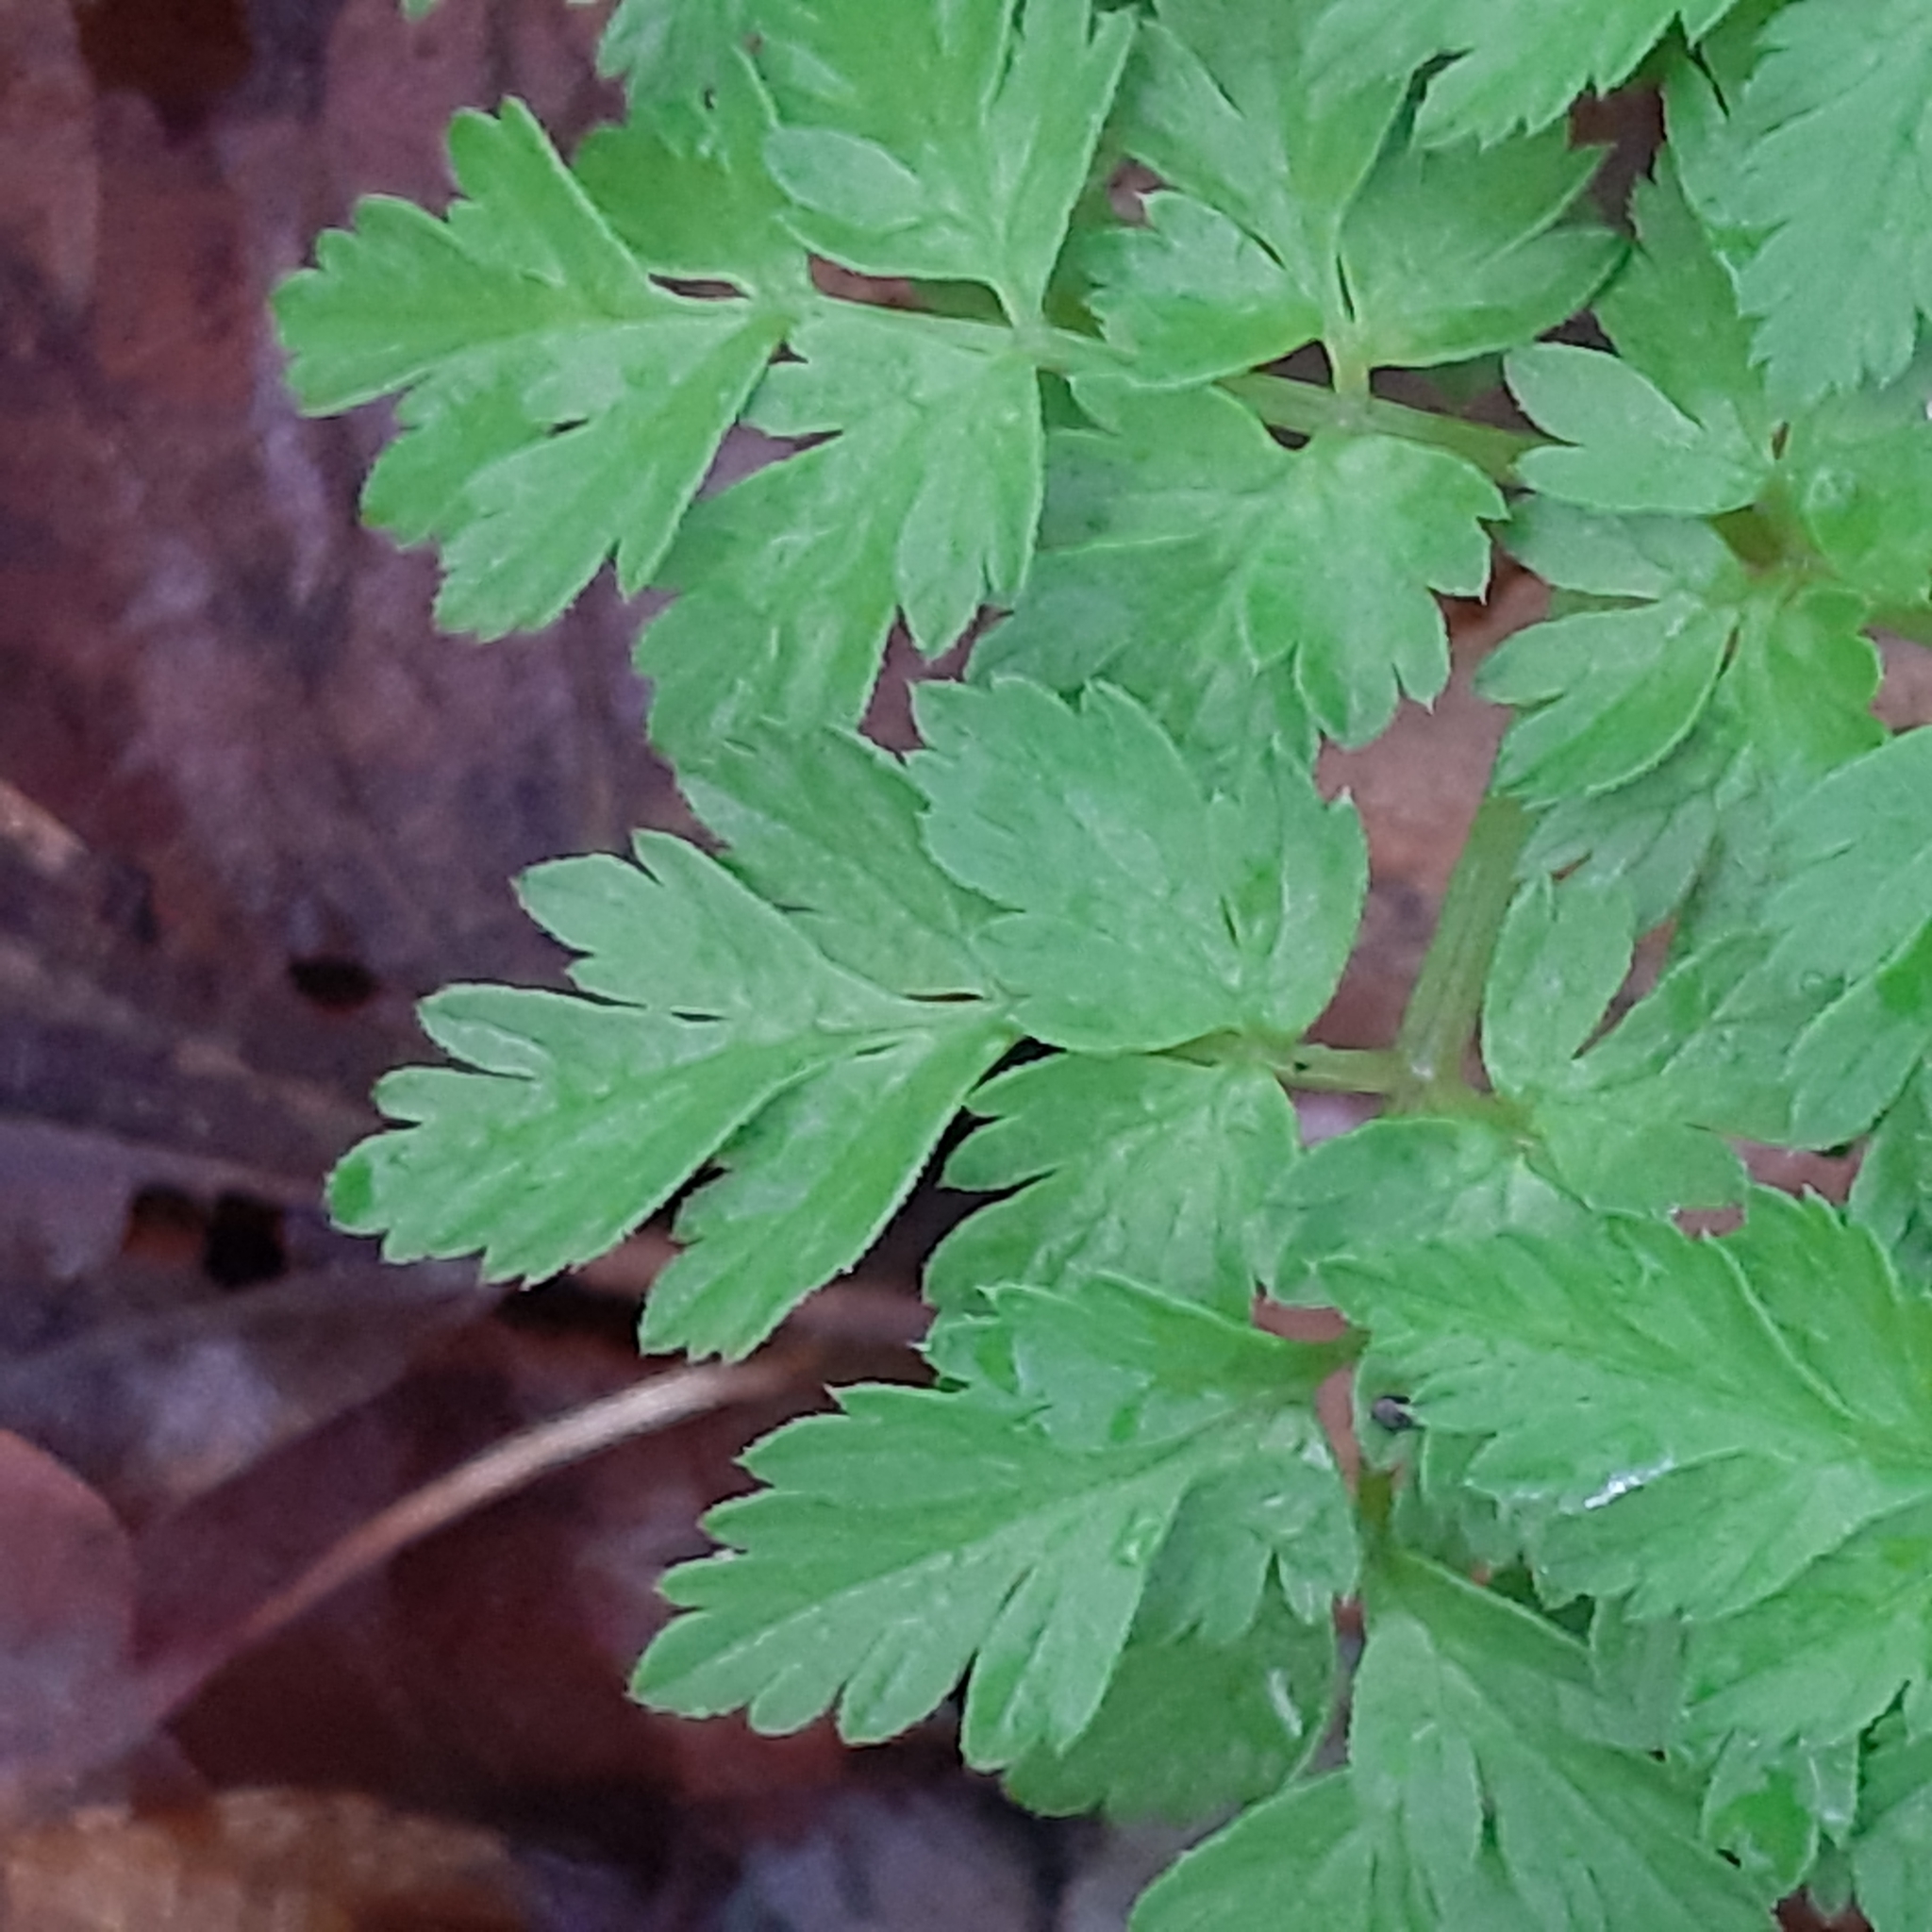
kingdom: Plantae
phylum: Tracheophyta
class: Magnoliopsida
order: Apiales
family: Apiaceae
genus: Anthriscus
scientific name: Anthriscus sylvestris
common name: Cow parsley
